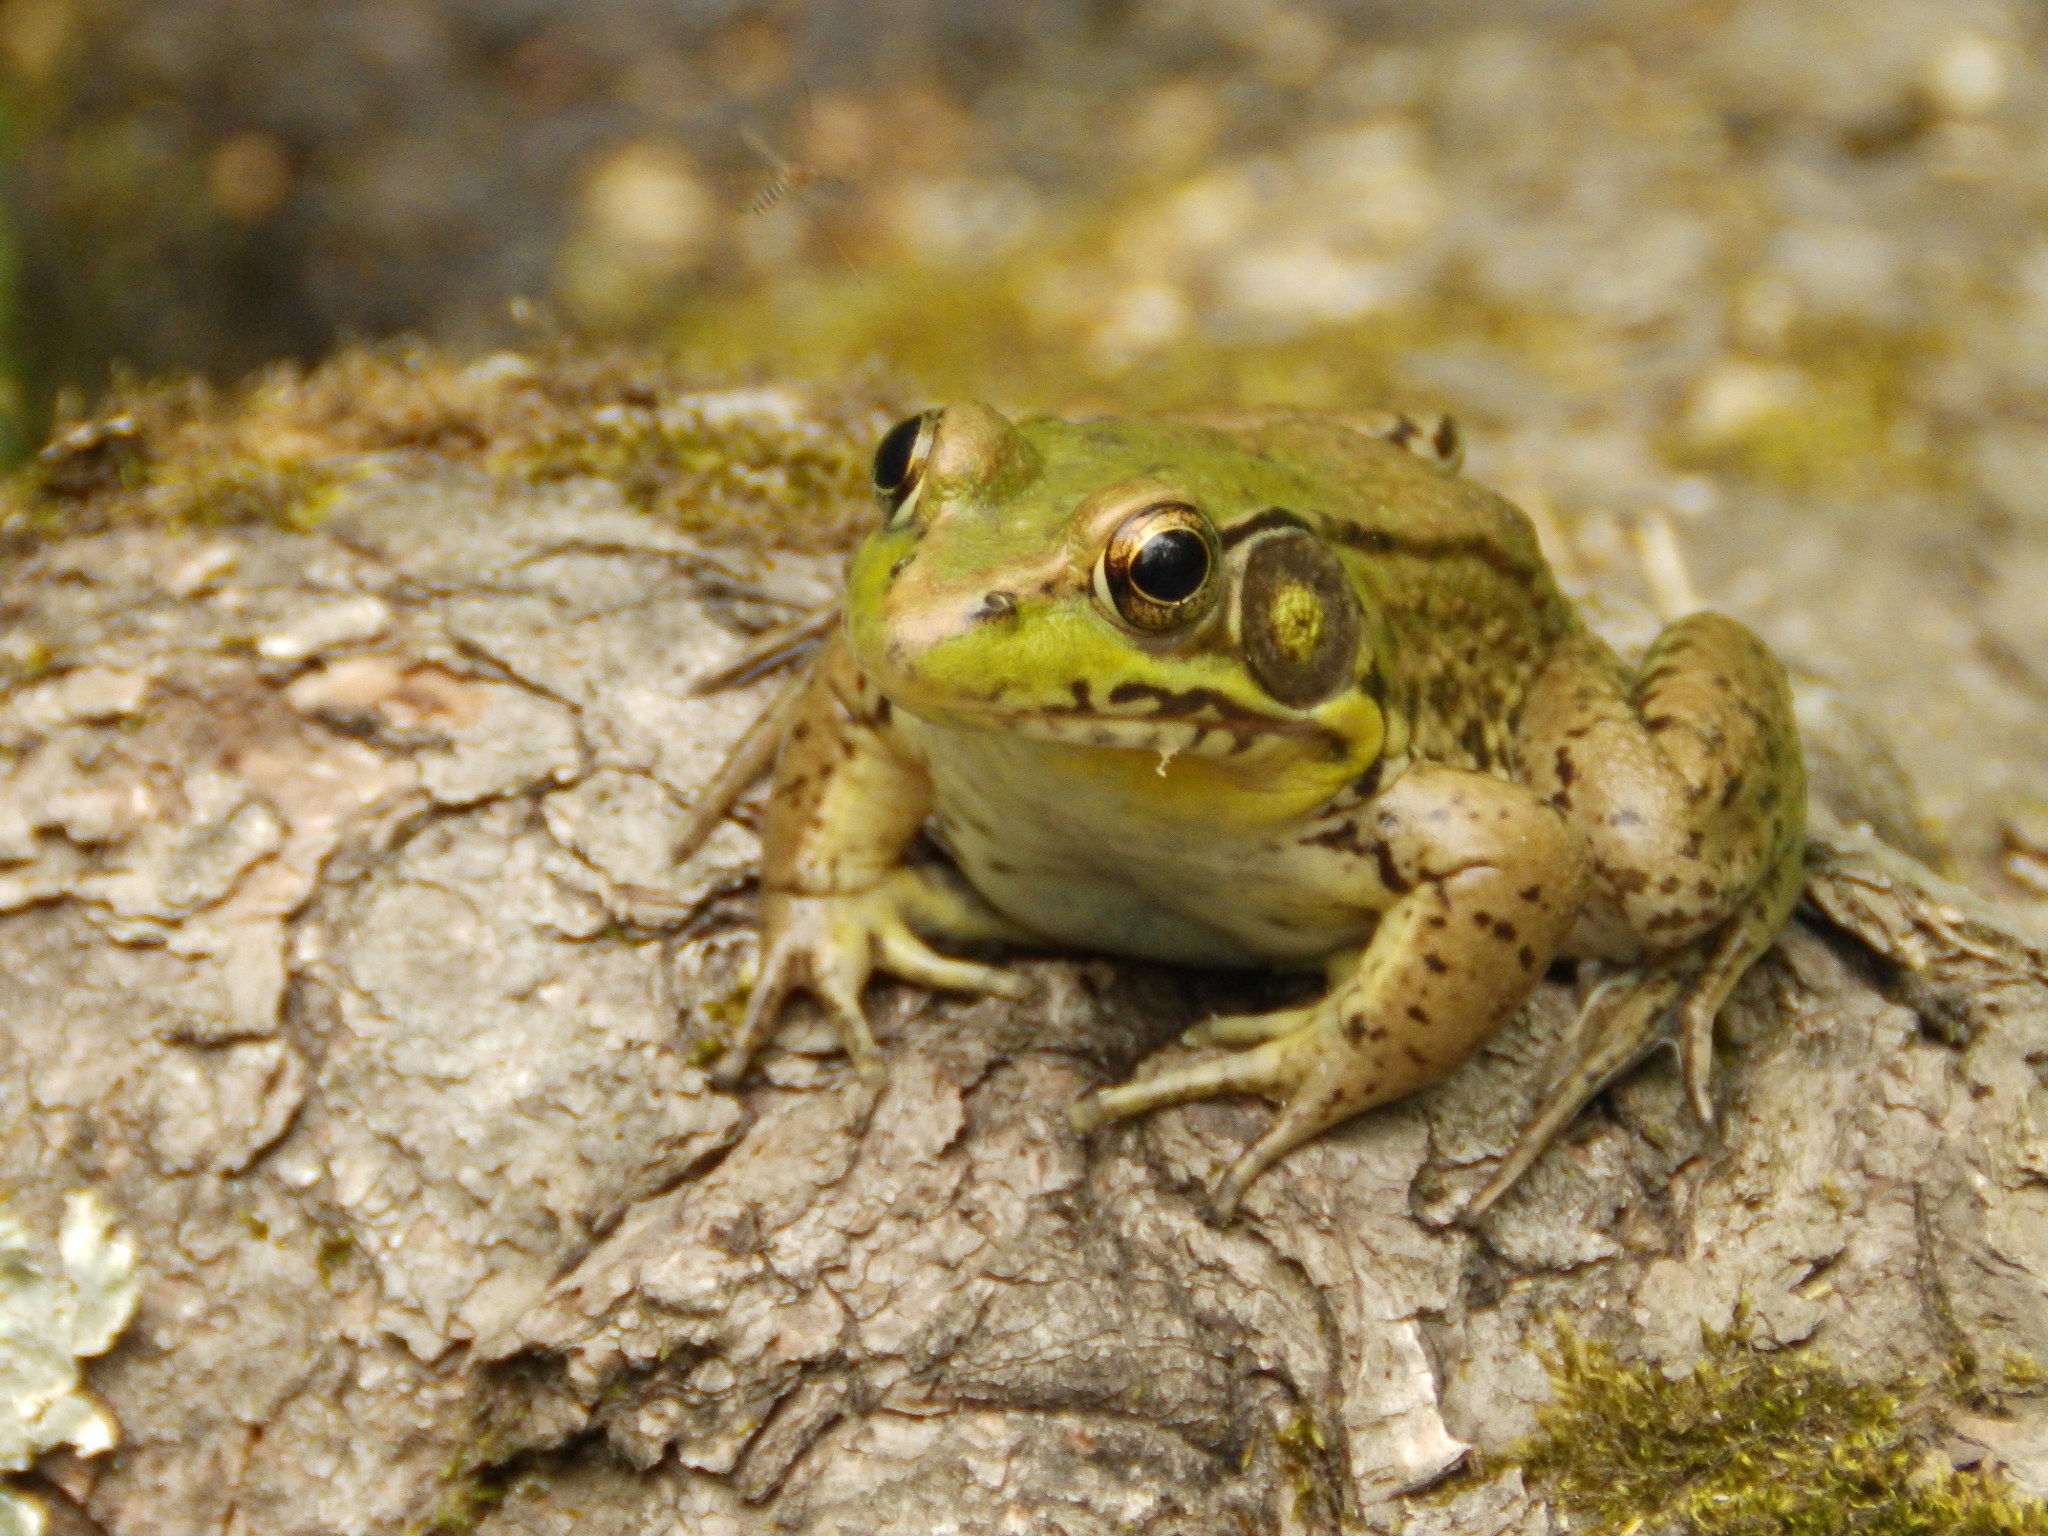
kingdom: Animalia
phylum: Chordata
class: Amphibia
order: Anura
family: Ranidae
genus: Lithobates
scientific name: Lithobates clamitans
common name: Green frog
